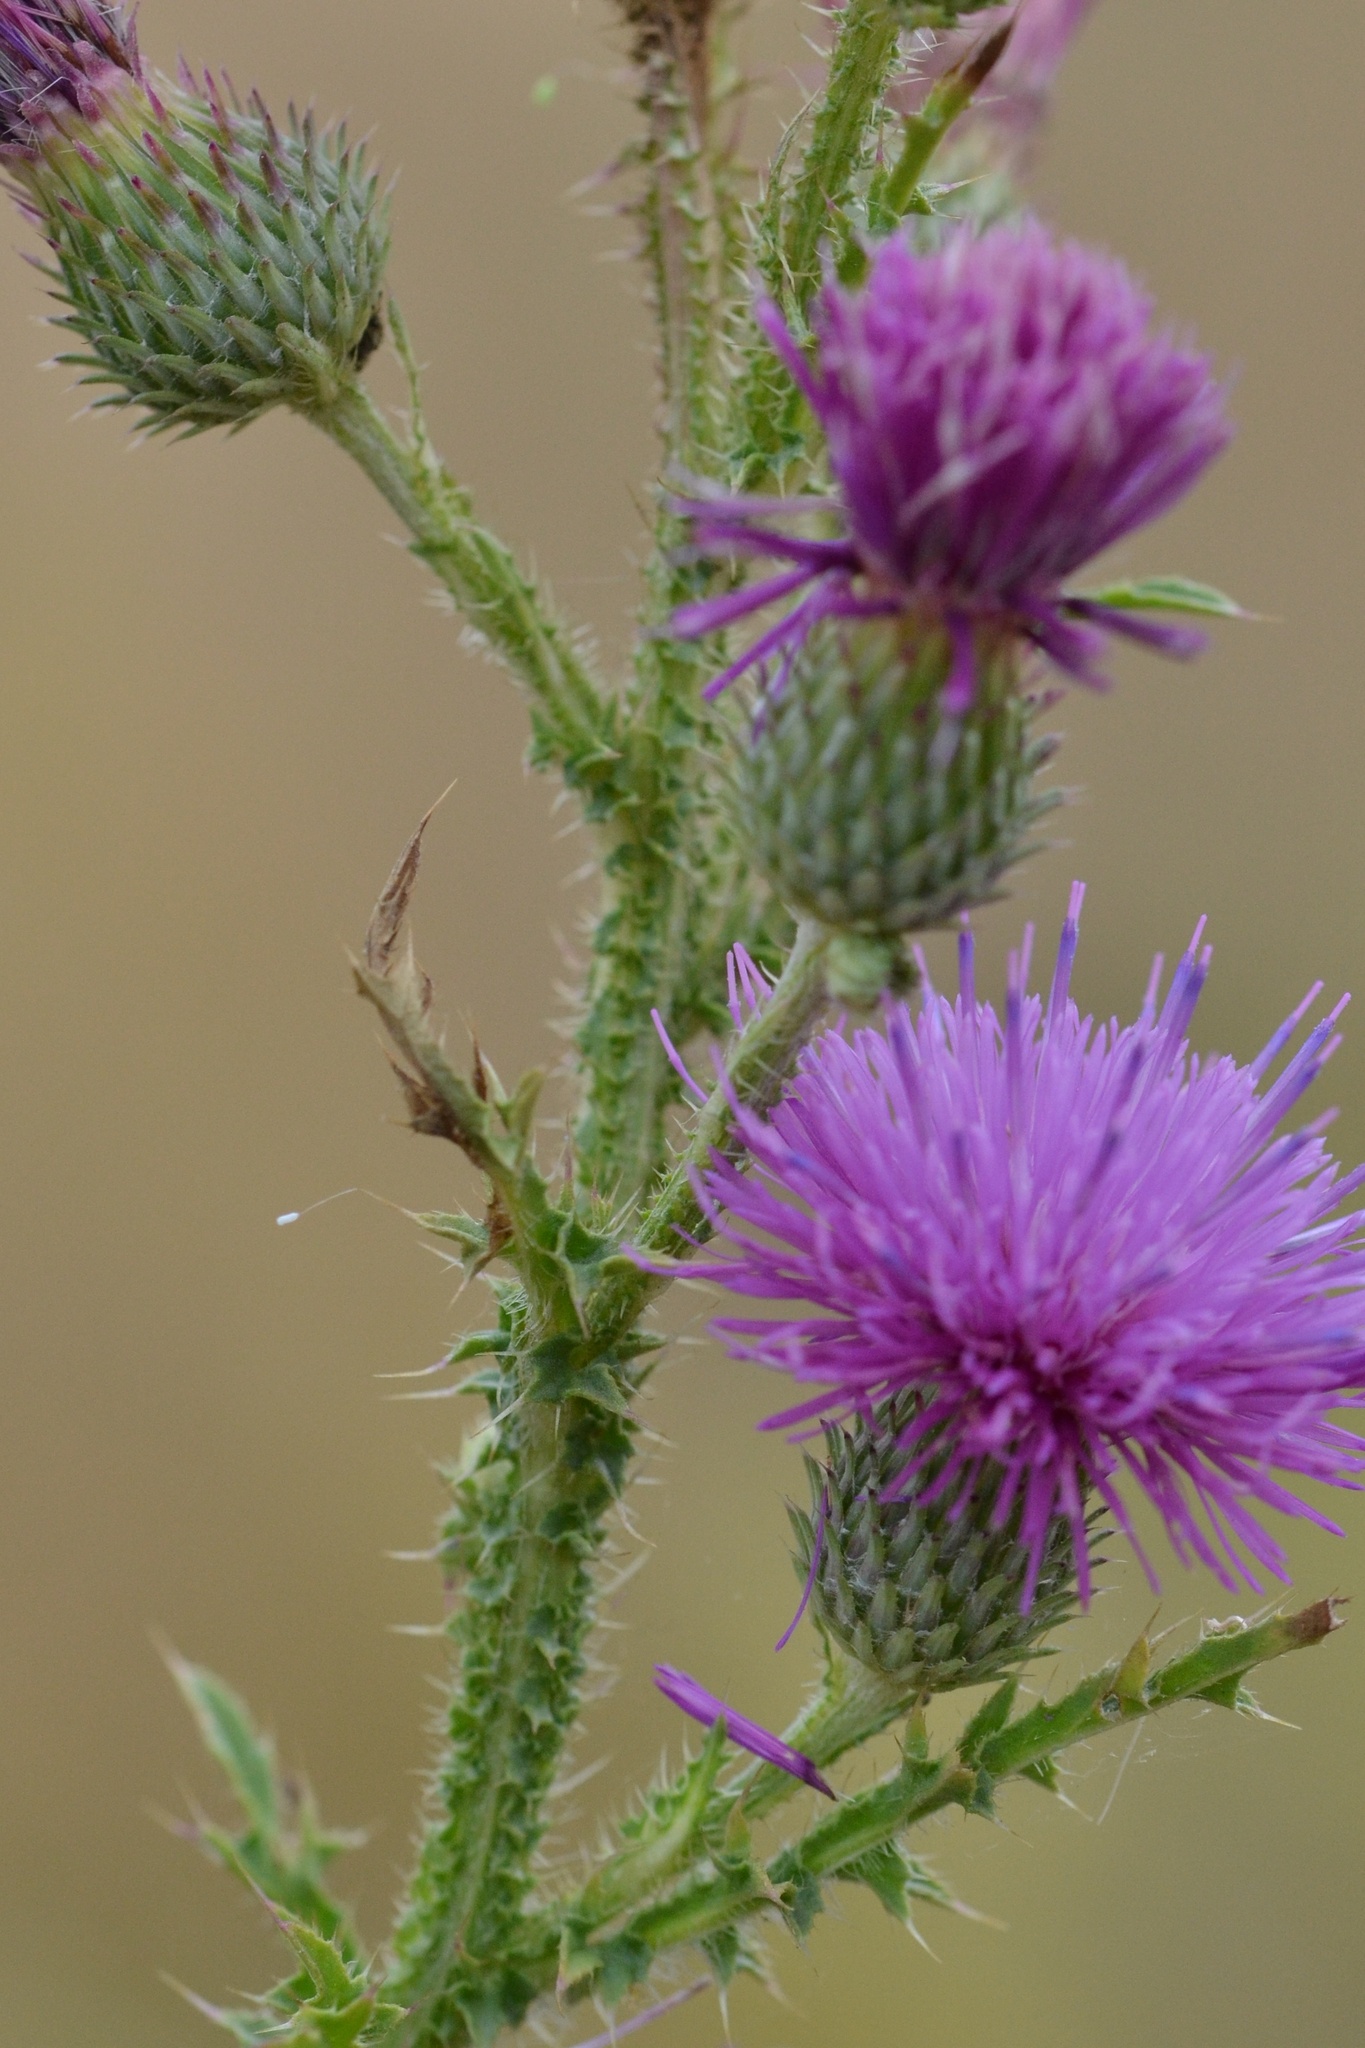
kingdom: Plantae
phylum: Tracheophyta
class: Magnoliopsida
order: Asterales
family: Asteraceae
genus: Carduus
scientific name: Carduus acanthoides
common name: Plumeless thistle
